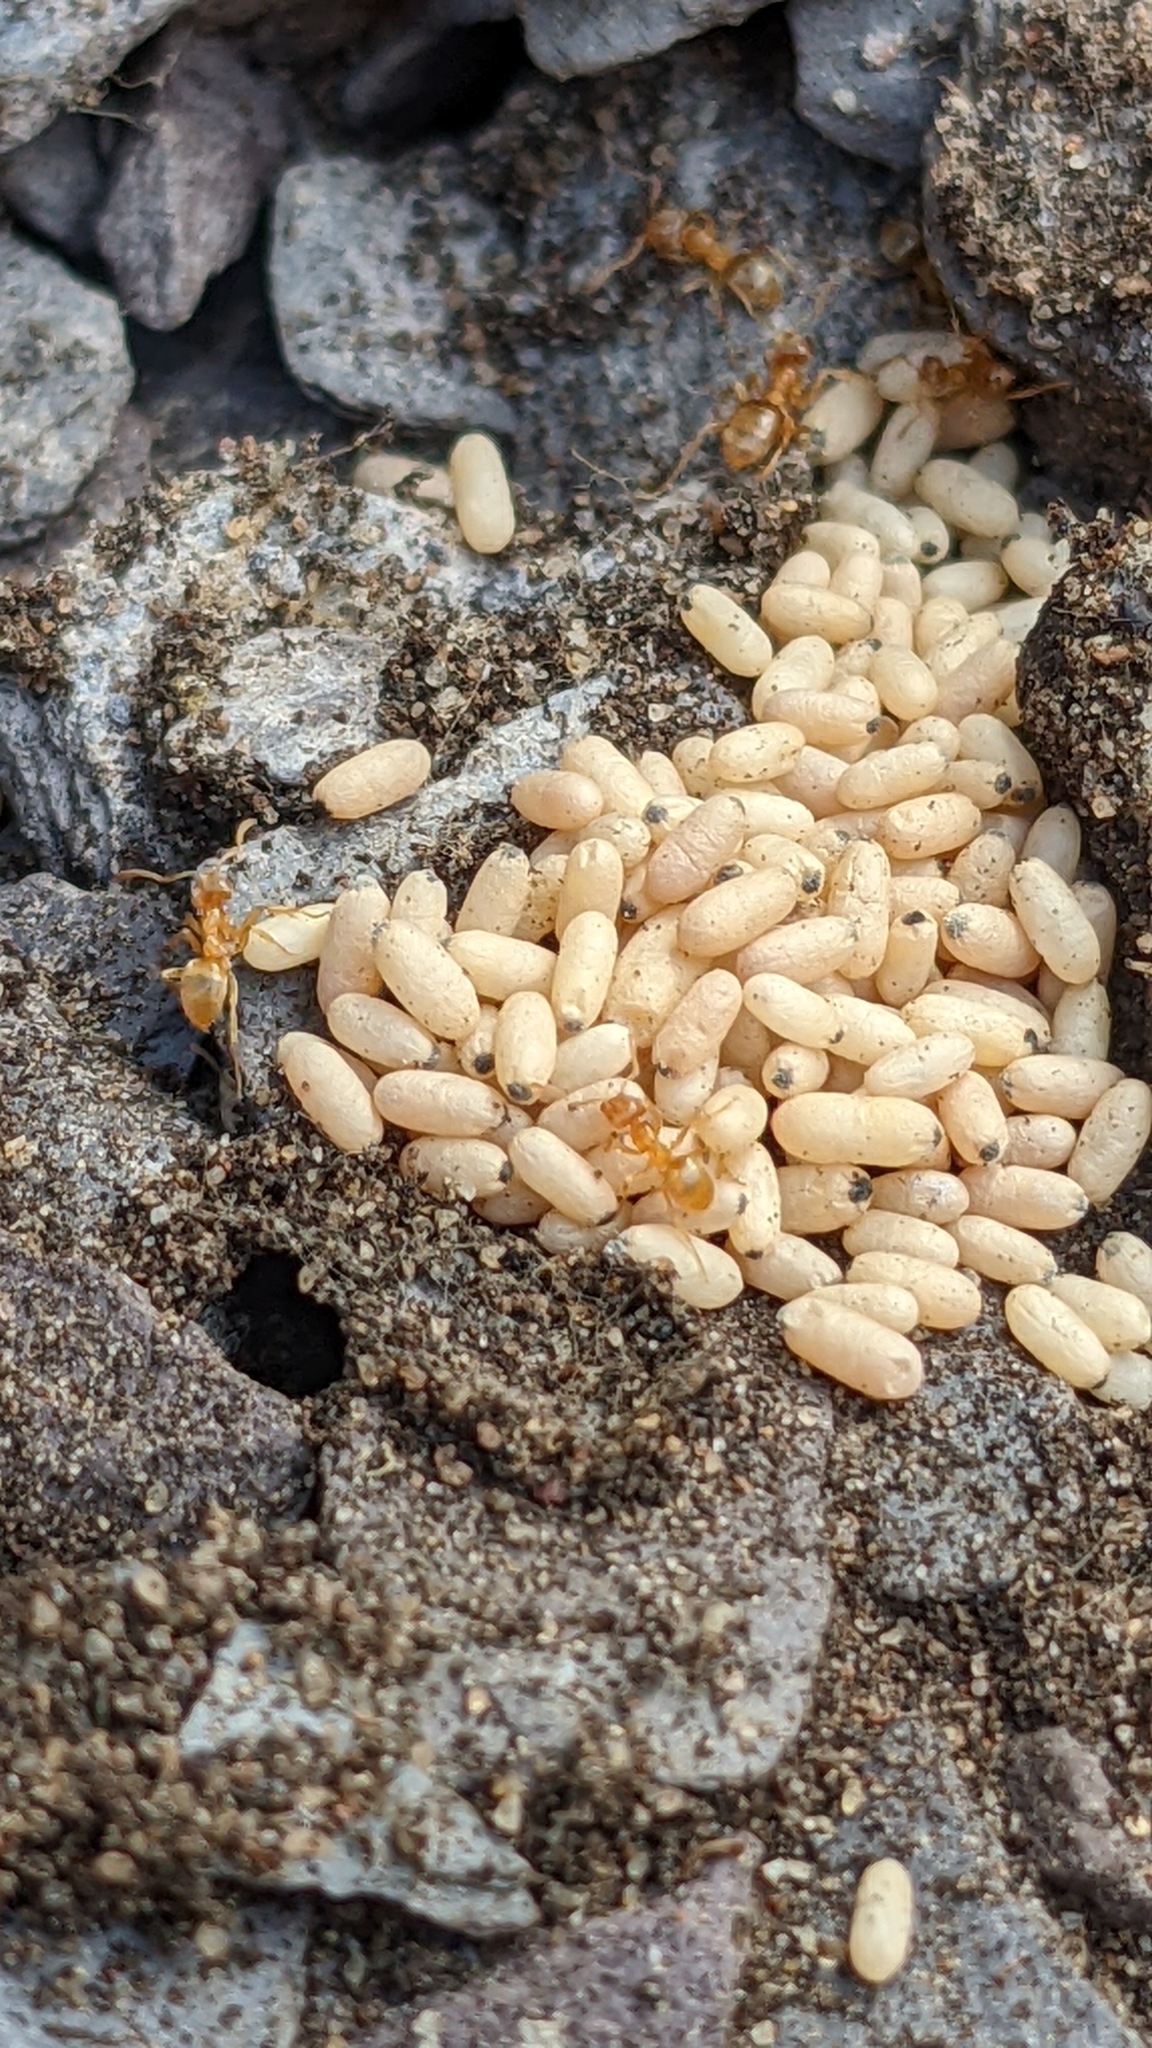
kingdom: Animalia
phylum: Arthropoda
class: Insecta
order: Hymenoptera
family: Formicidae
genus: Lasius
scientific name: Lasius flavus
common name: Blond field ant
